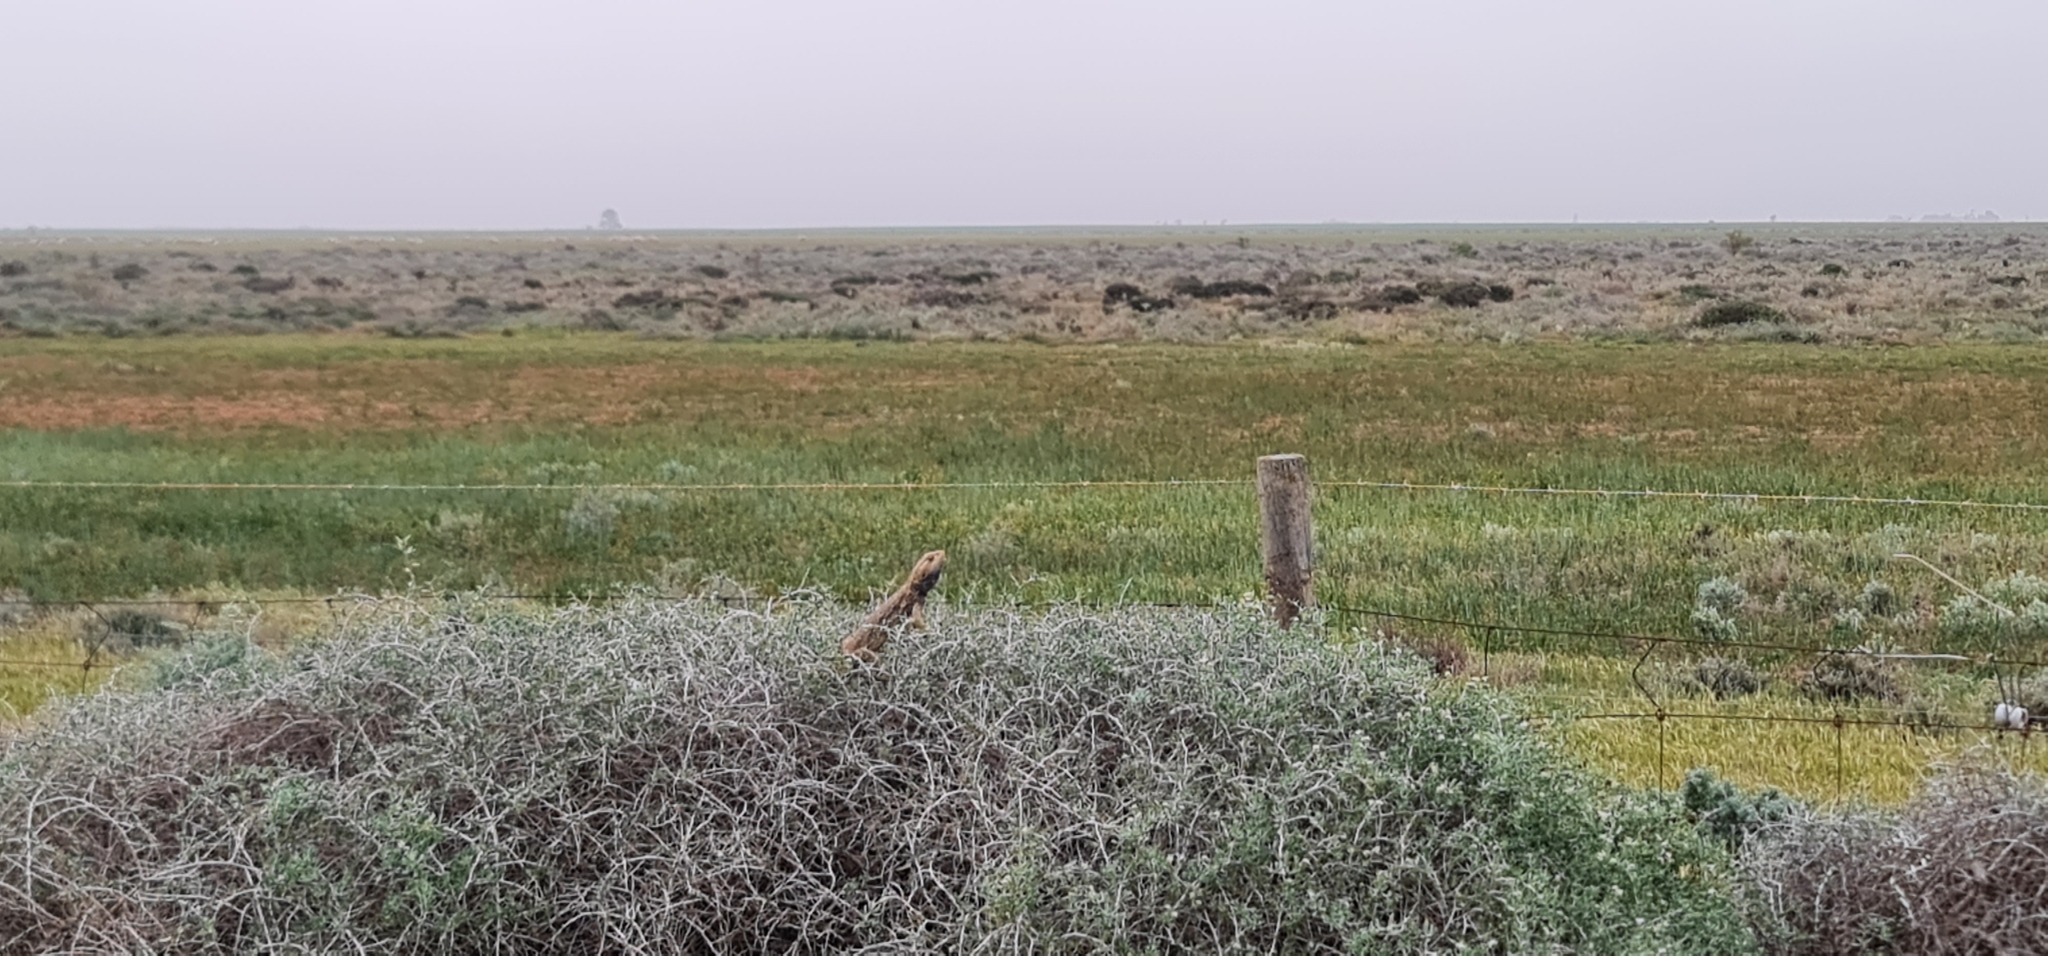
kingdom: Animalia
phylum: Chordata
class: Squamata
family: Agamidae
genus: Pogona
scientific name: Pogona vitticeps
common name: Central bearded dragon
